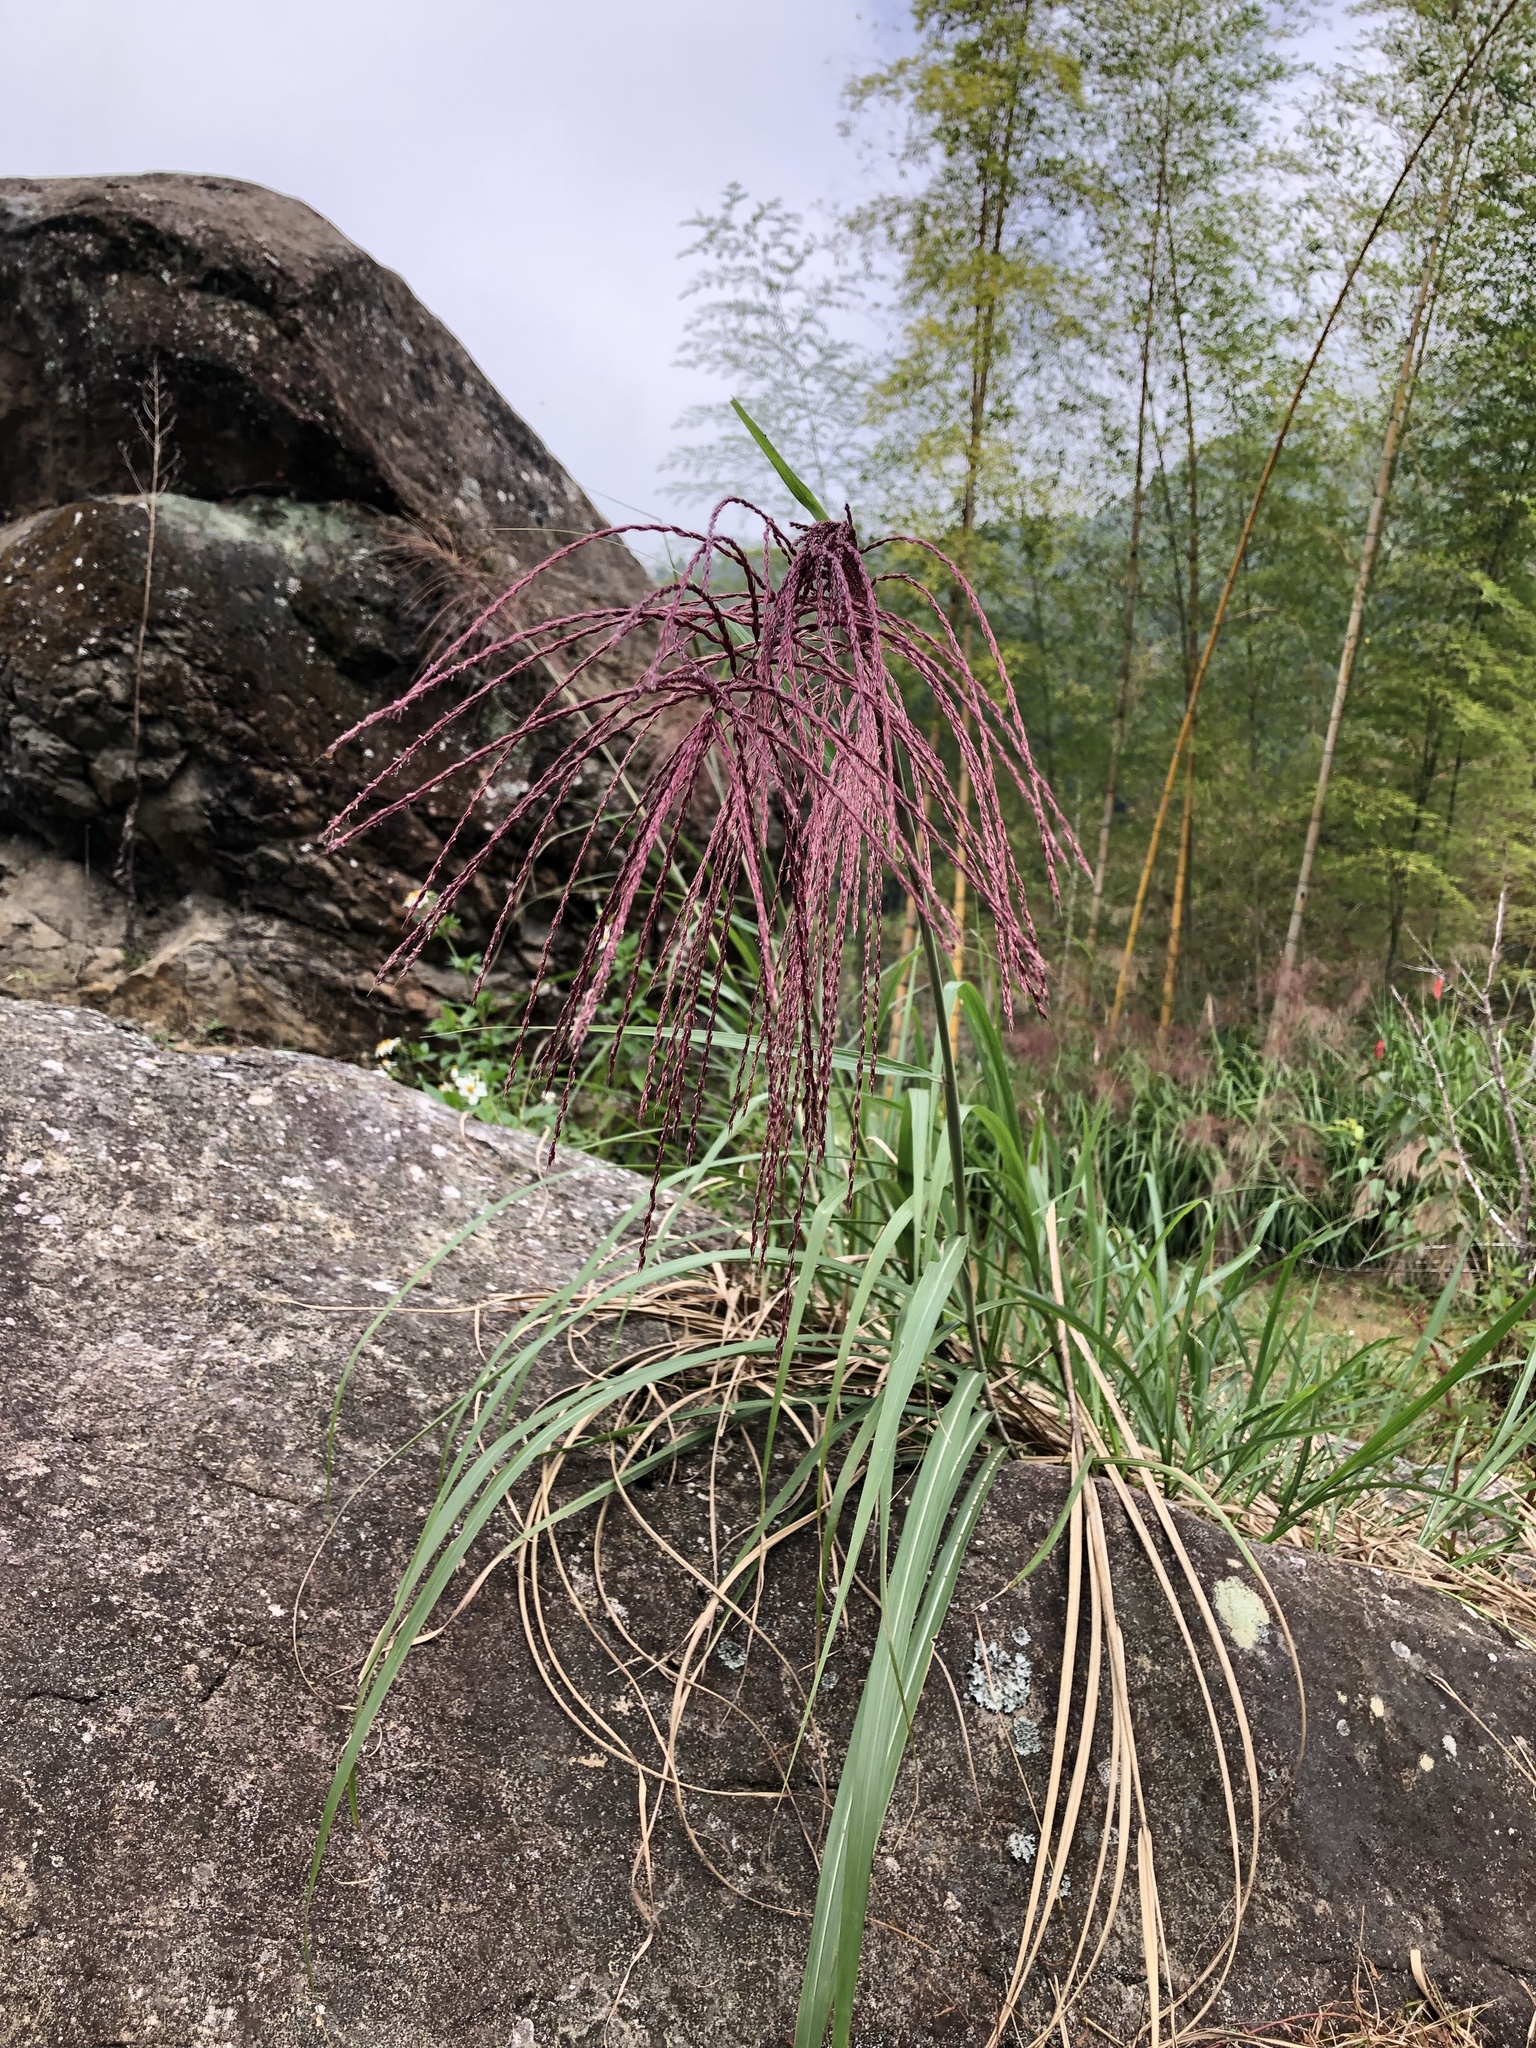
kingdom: Plantae
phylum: Tracheophyta
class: Liliopsida
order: Poales
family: Poaceae
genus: Miscanthus
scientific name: Miscanthus sinensis
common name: Chinese silvergrass
